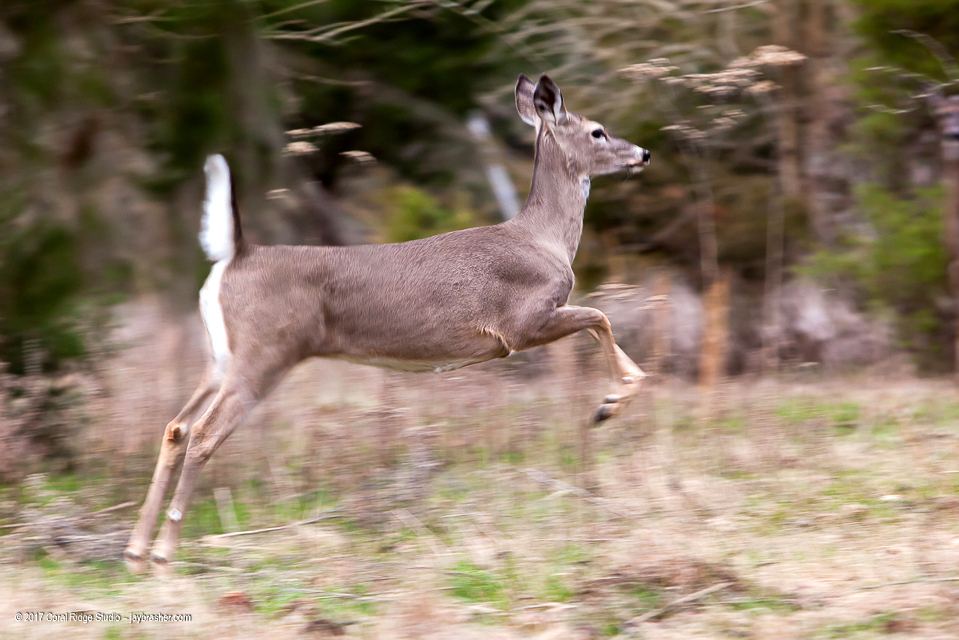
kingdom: Animalia
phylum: Chordata
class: Mammalia
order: Artiodactyla
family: Cervidae
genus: Odocoileus
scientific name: Odocoileus virginianus
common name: White-tailed deer
